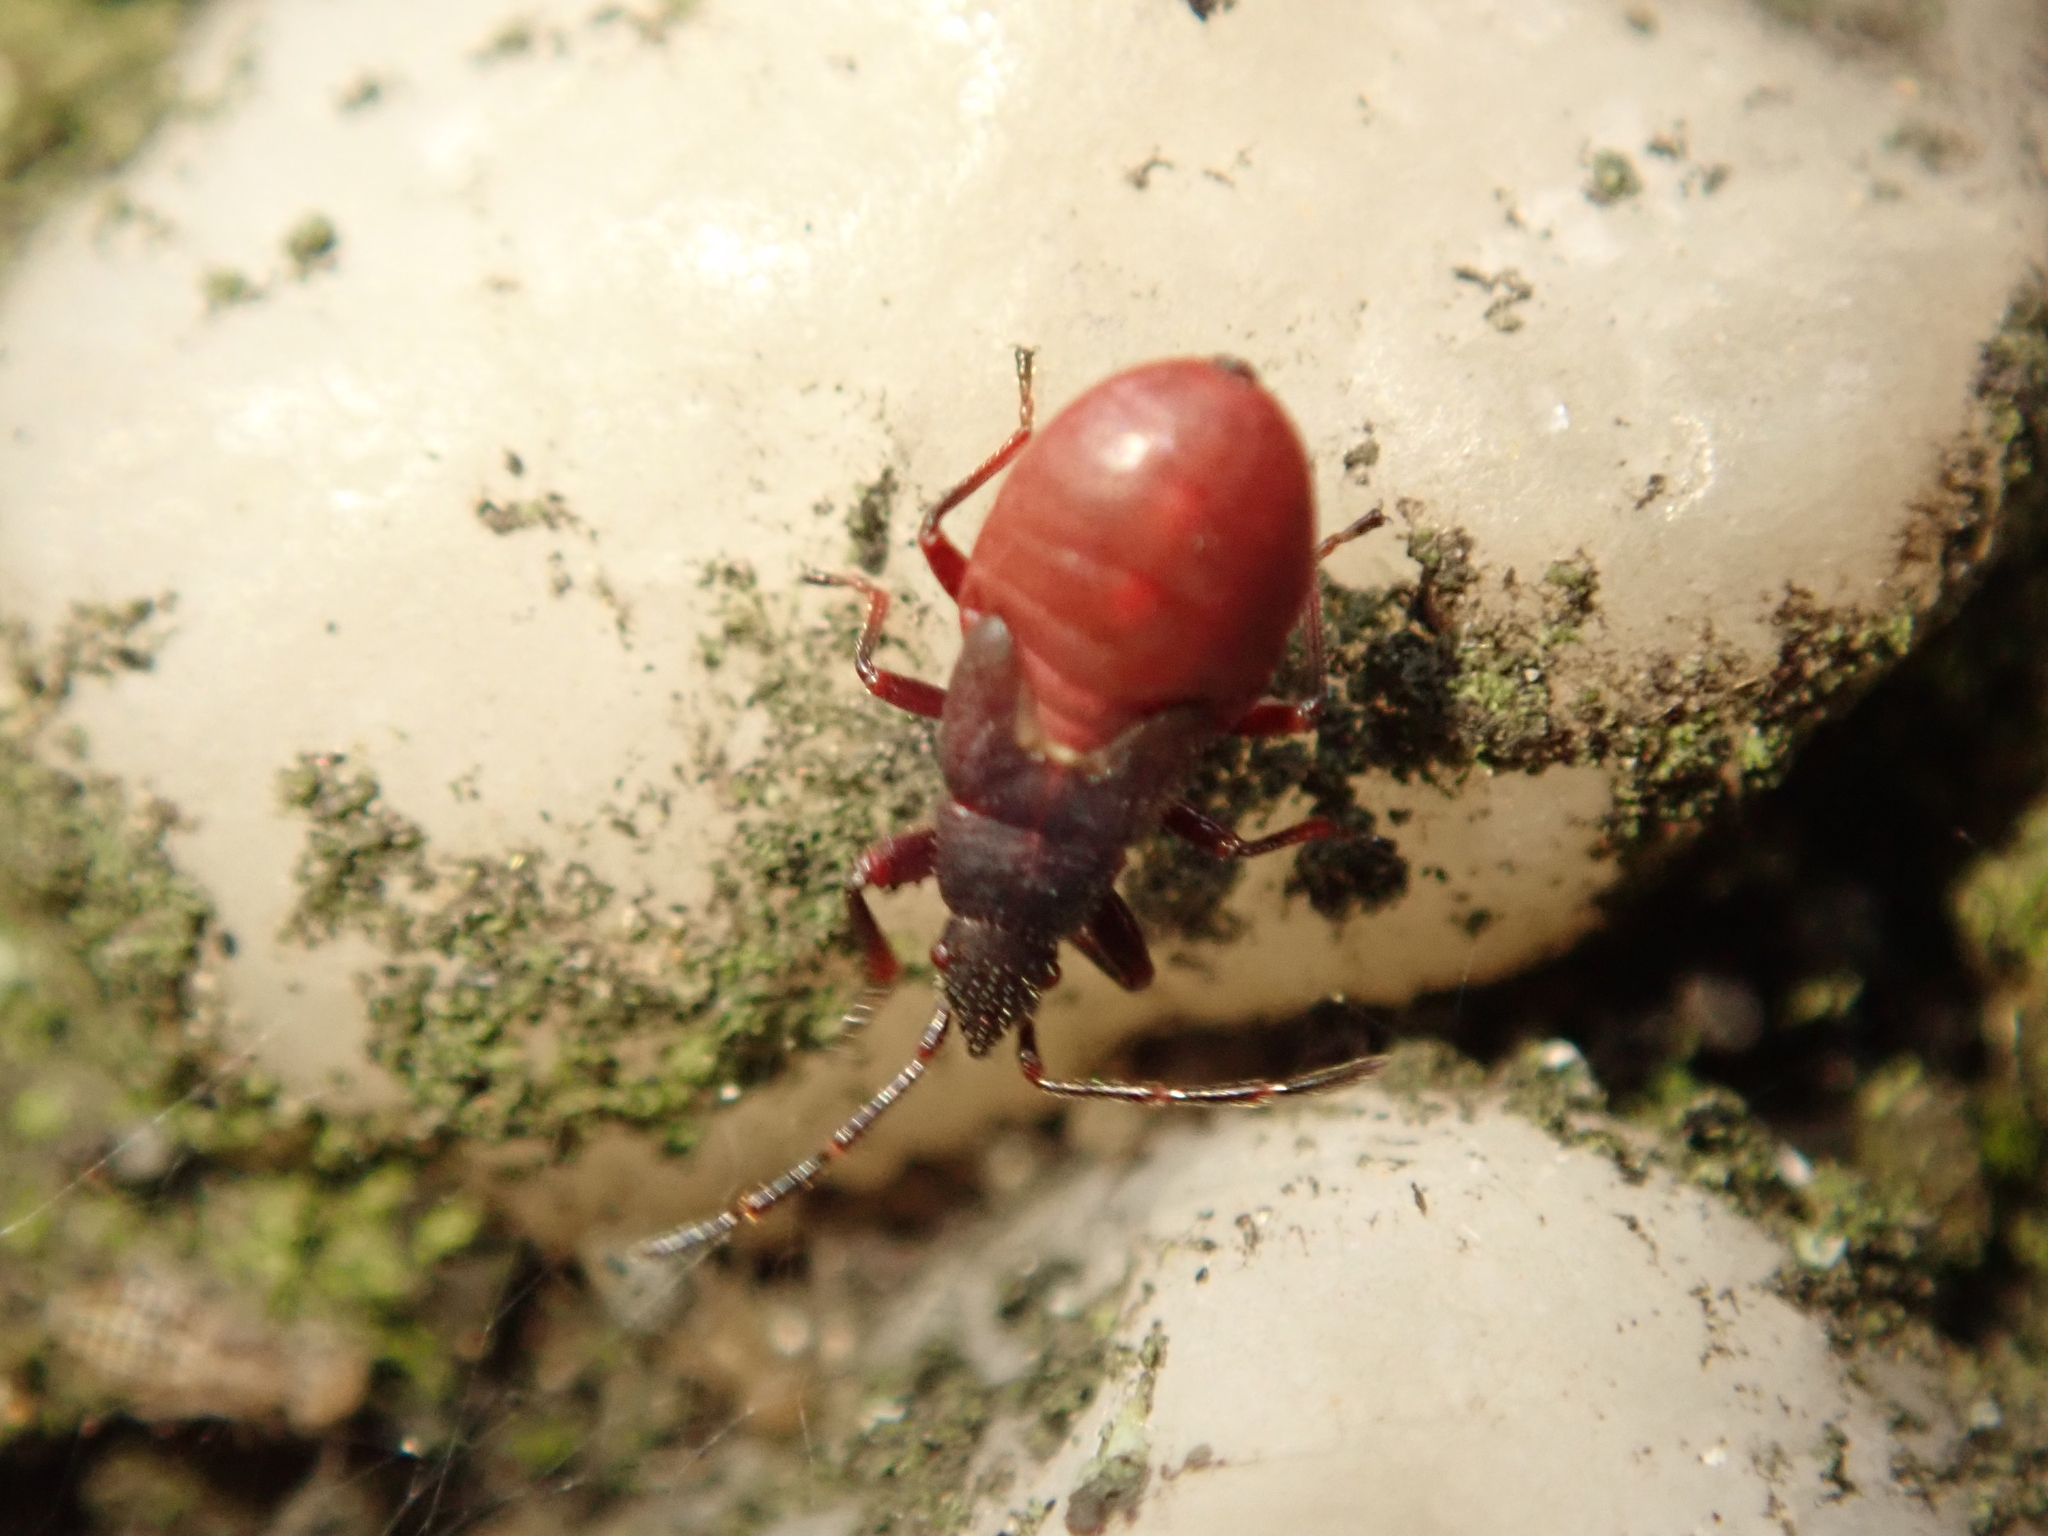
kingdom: Animalia
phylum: Arthropoda
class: Insecta
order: Hemiptera
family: Oxycarenidae
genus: Oxycarenus
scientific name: Oxycarenus lavaterae
